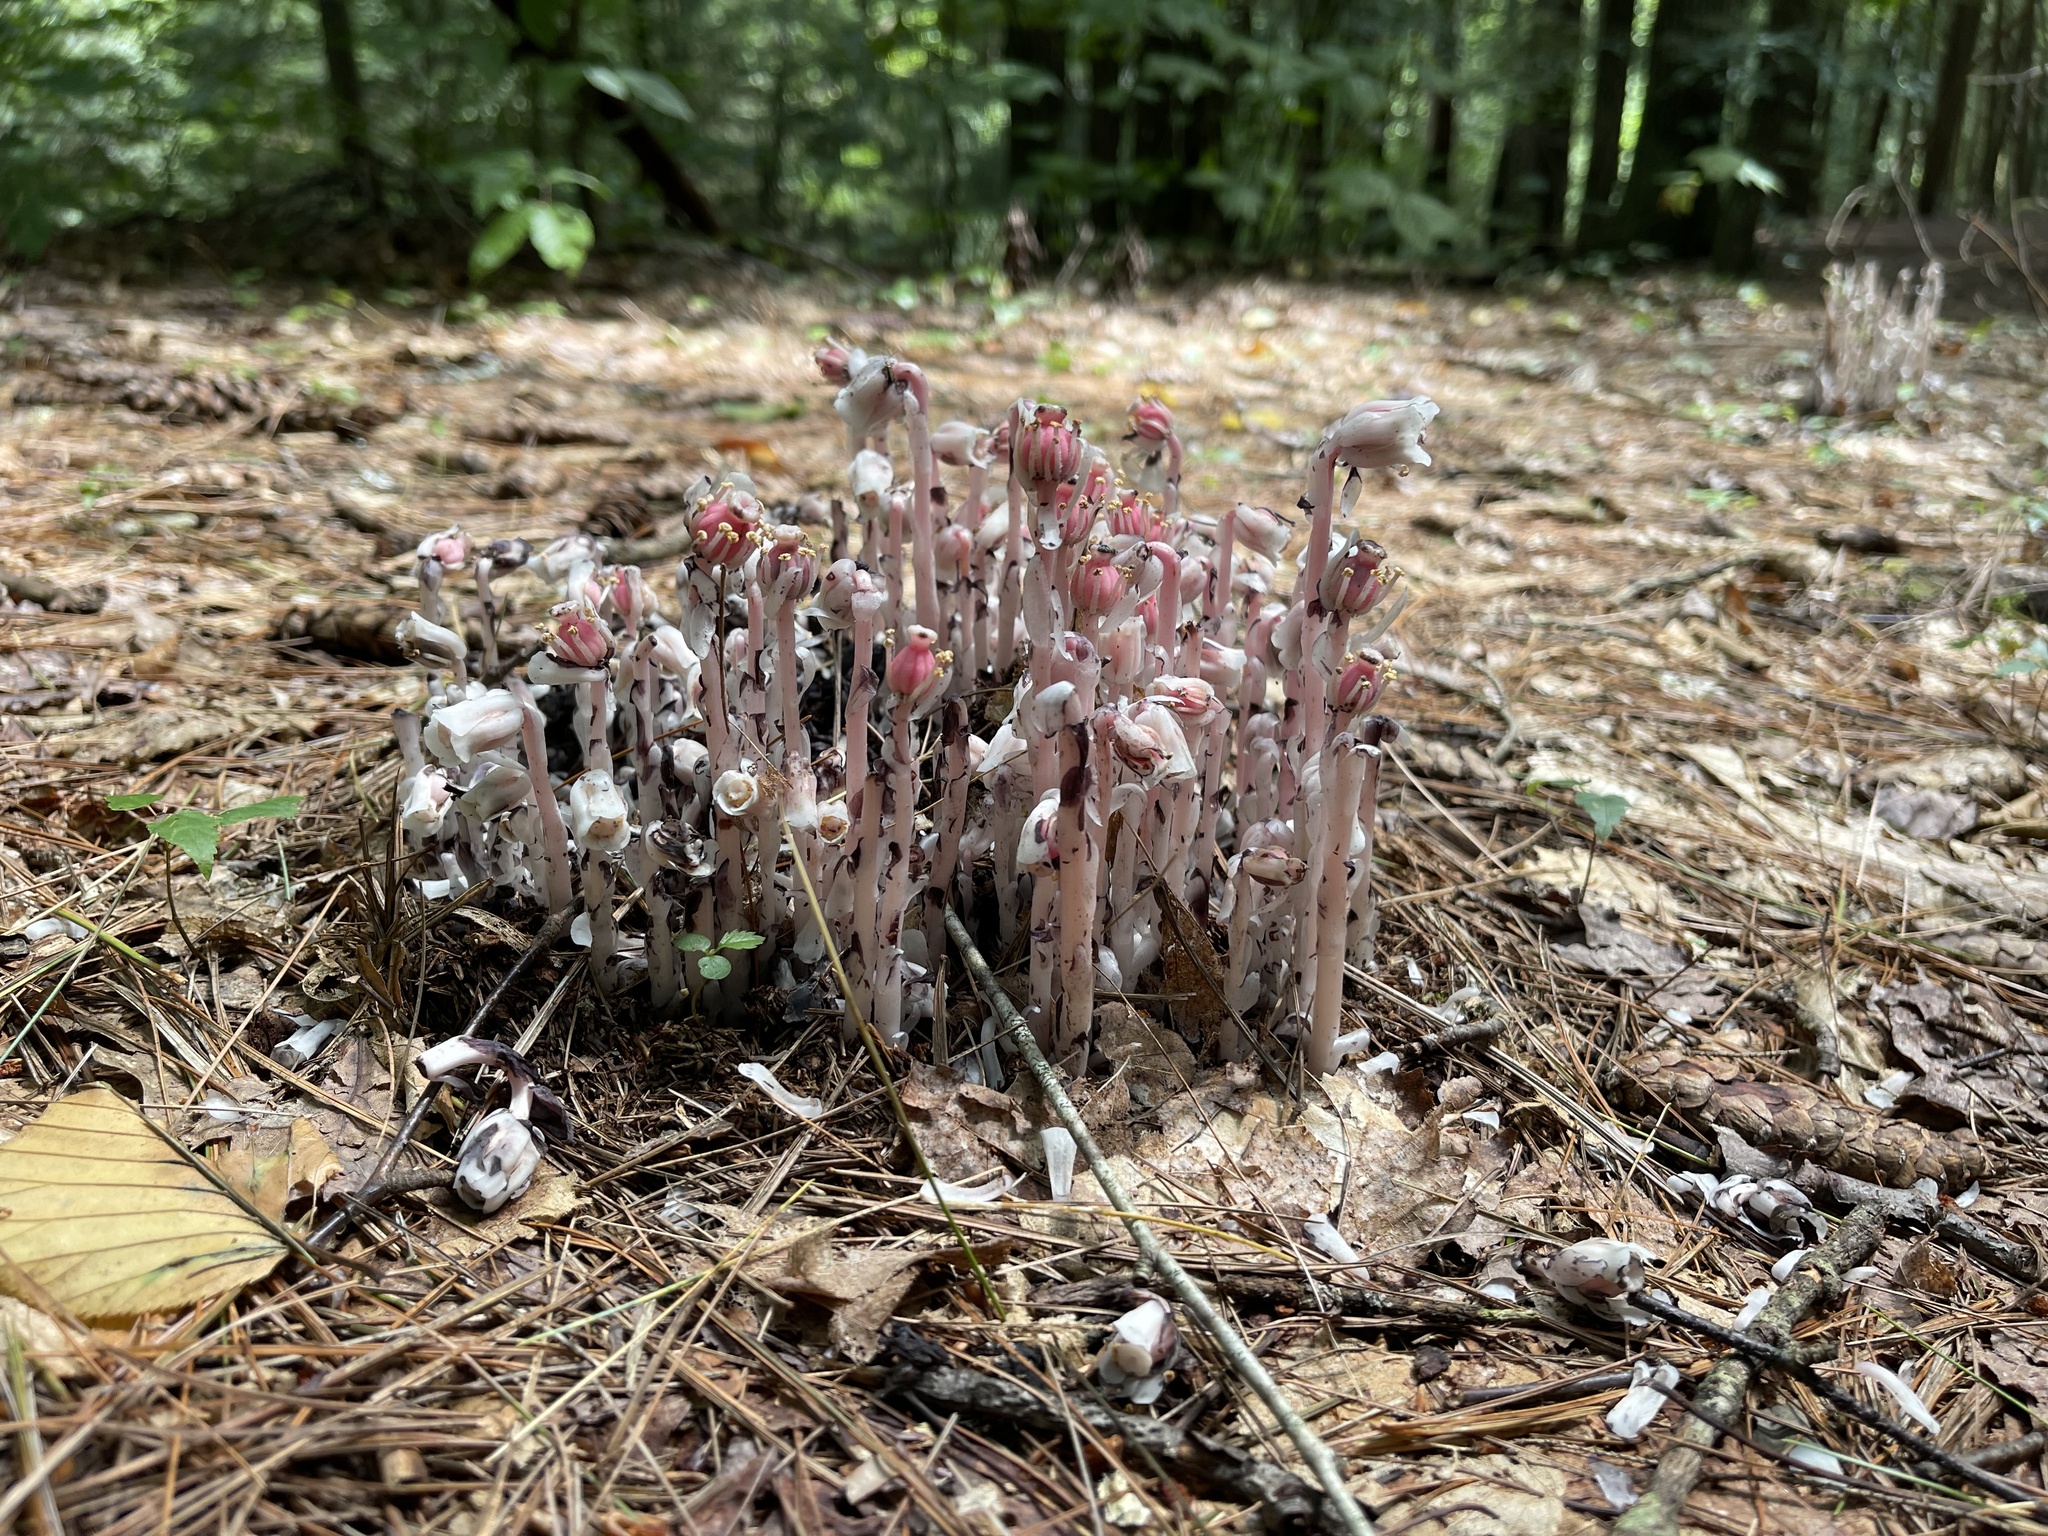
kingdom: Plantae
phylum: Tracheophyta
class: Magnoliopsida
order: Ericales
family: Ericaceae
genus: Monotropa
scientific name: Monotropa uniflora
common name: Convulsion root
